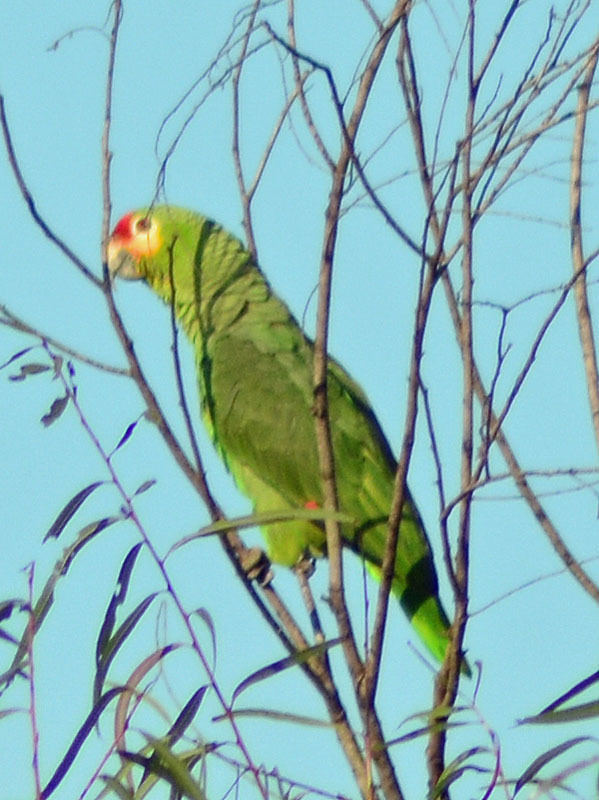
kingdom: Animalia
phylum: Chordata
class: Aves
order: Psittaciformes
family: Psittacidae
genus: Amazona
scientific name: Amazona autumnalis
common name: Red-lored amazon
